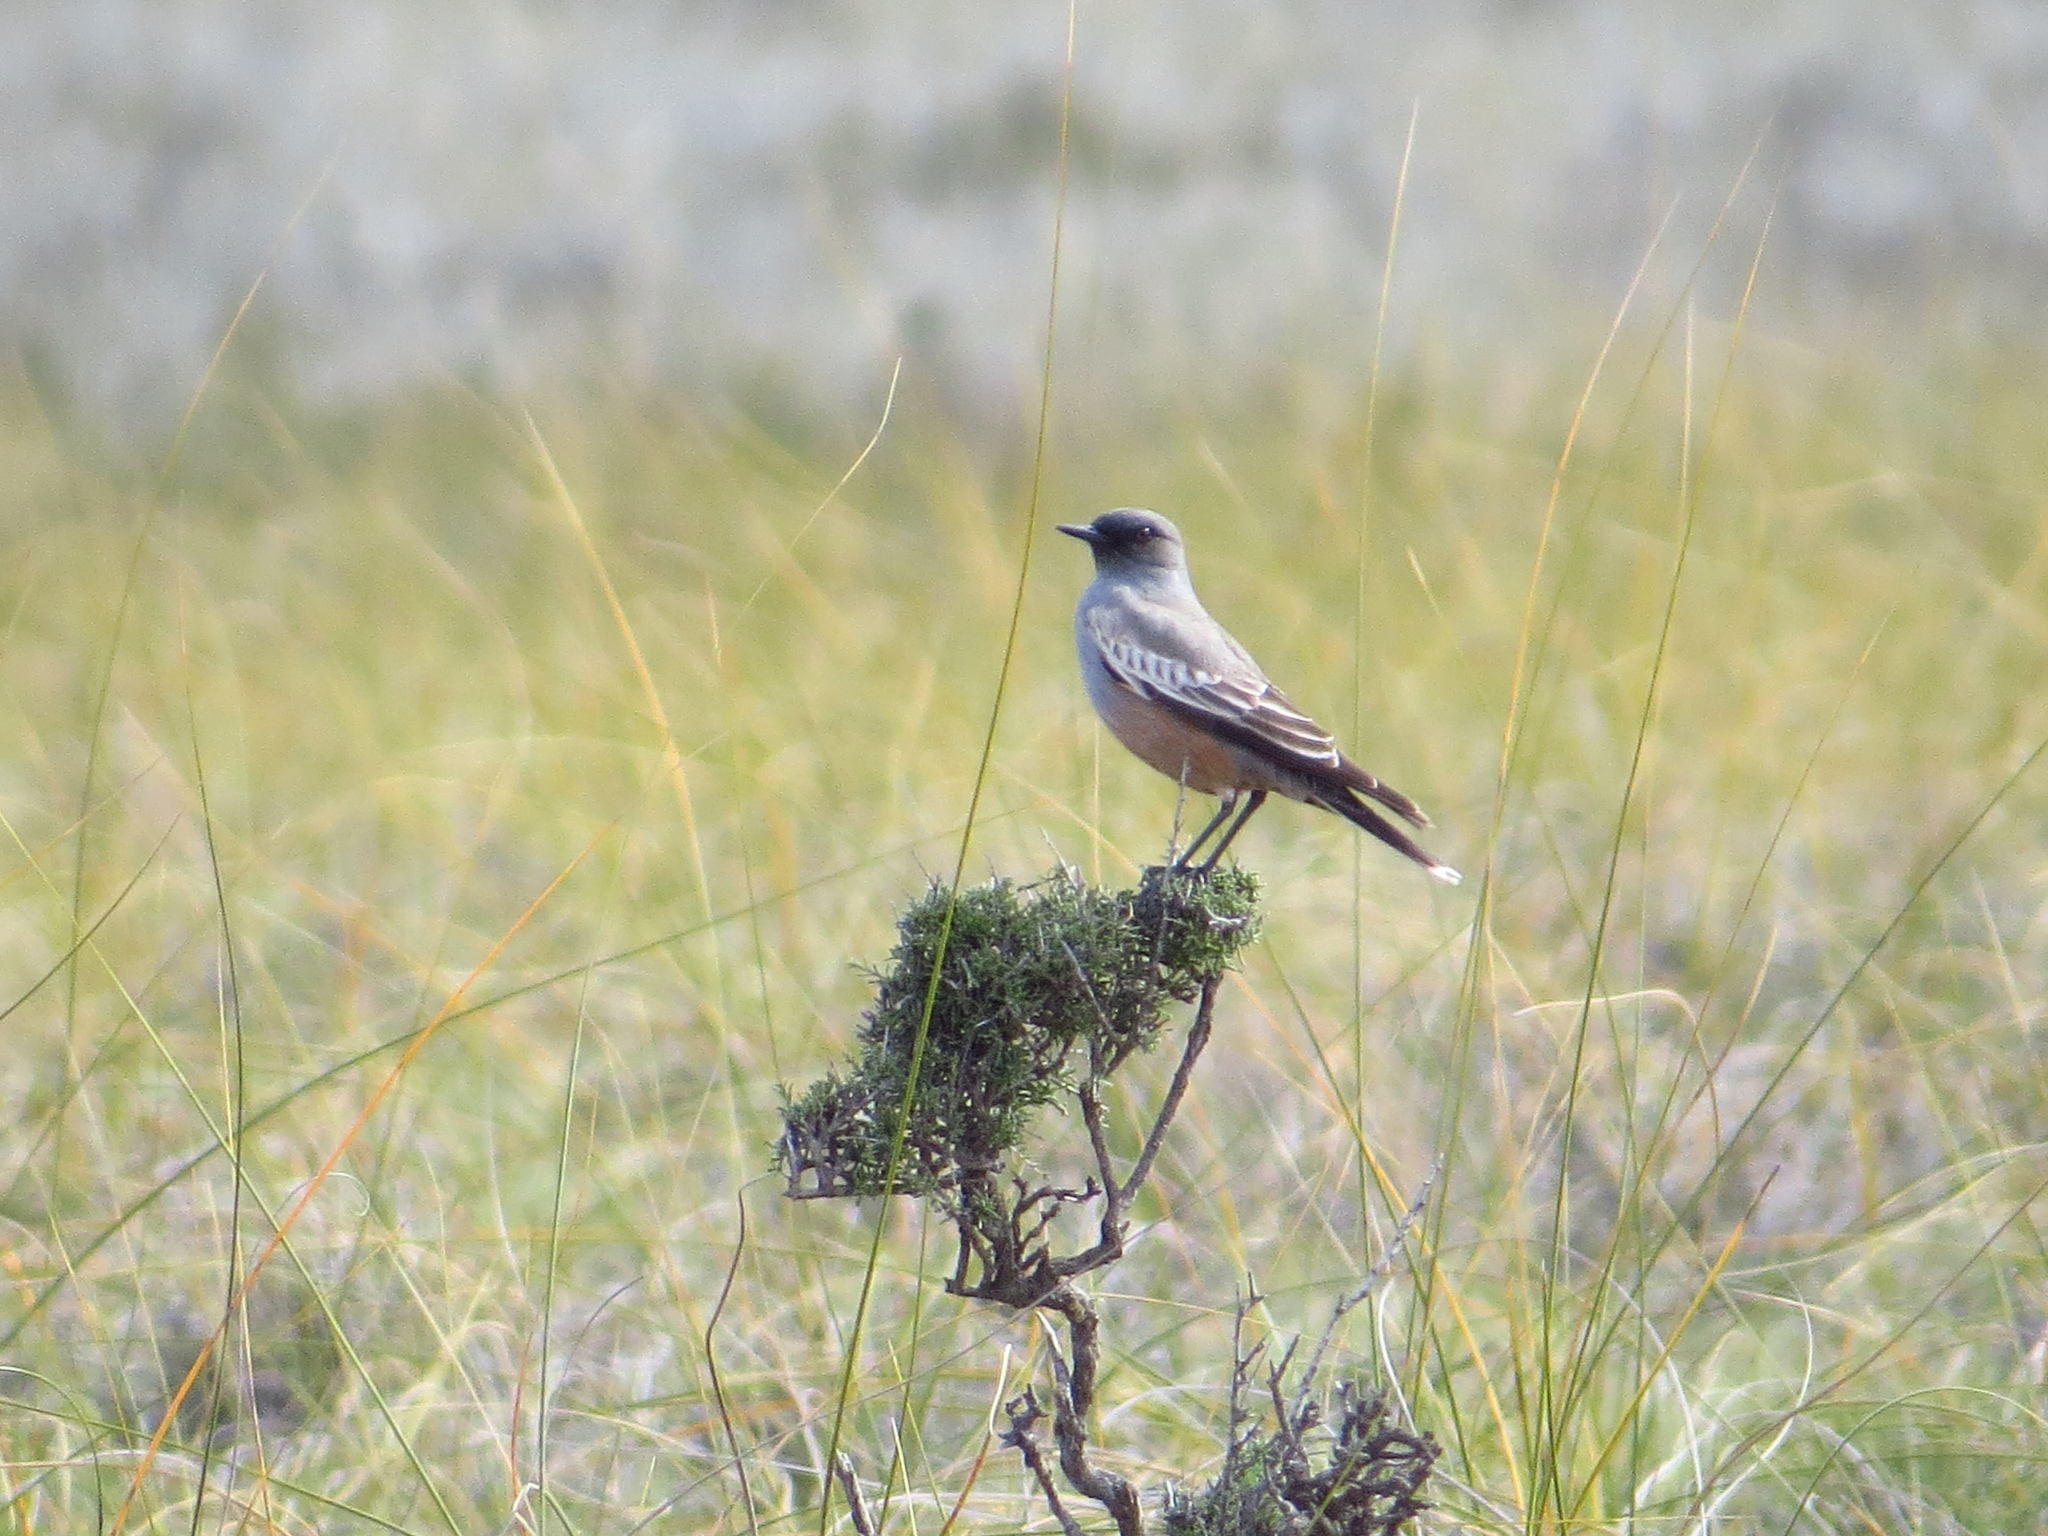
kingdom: Animalia
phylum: Chordata
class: Aves
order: Passeriformes
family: Tyrannidae
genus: Neoxolmis
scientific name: Neoxolmis rufiventris
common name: Chocolate-vented tyrant
